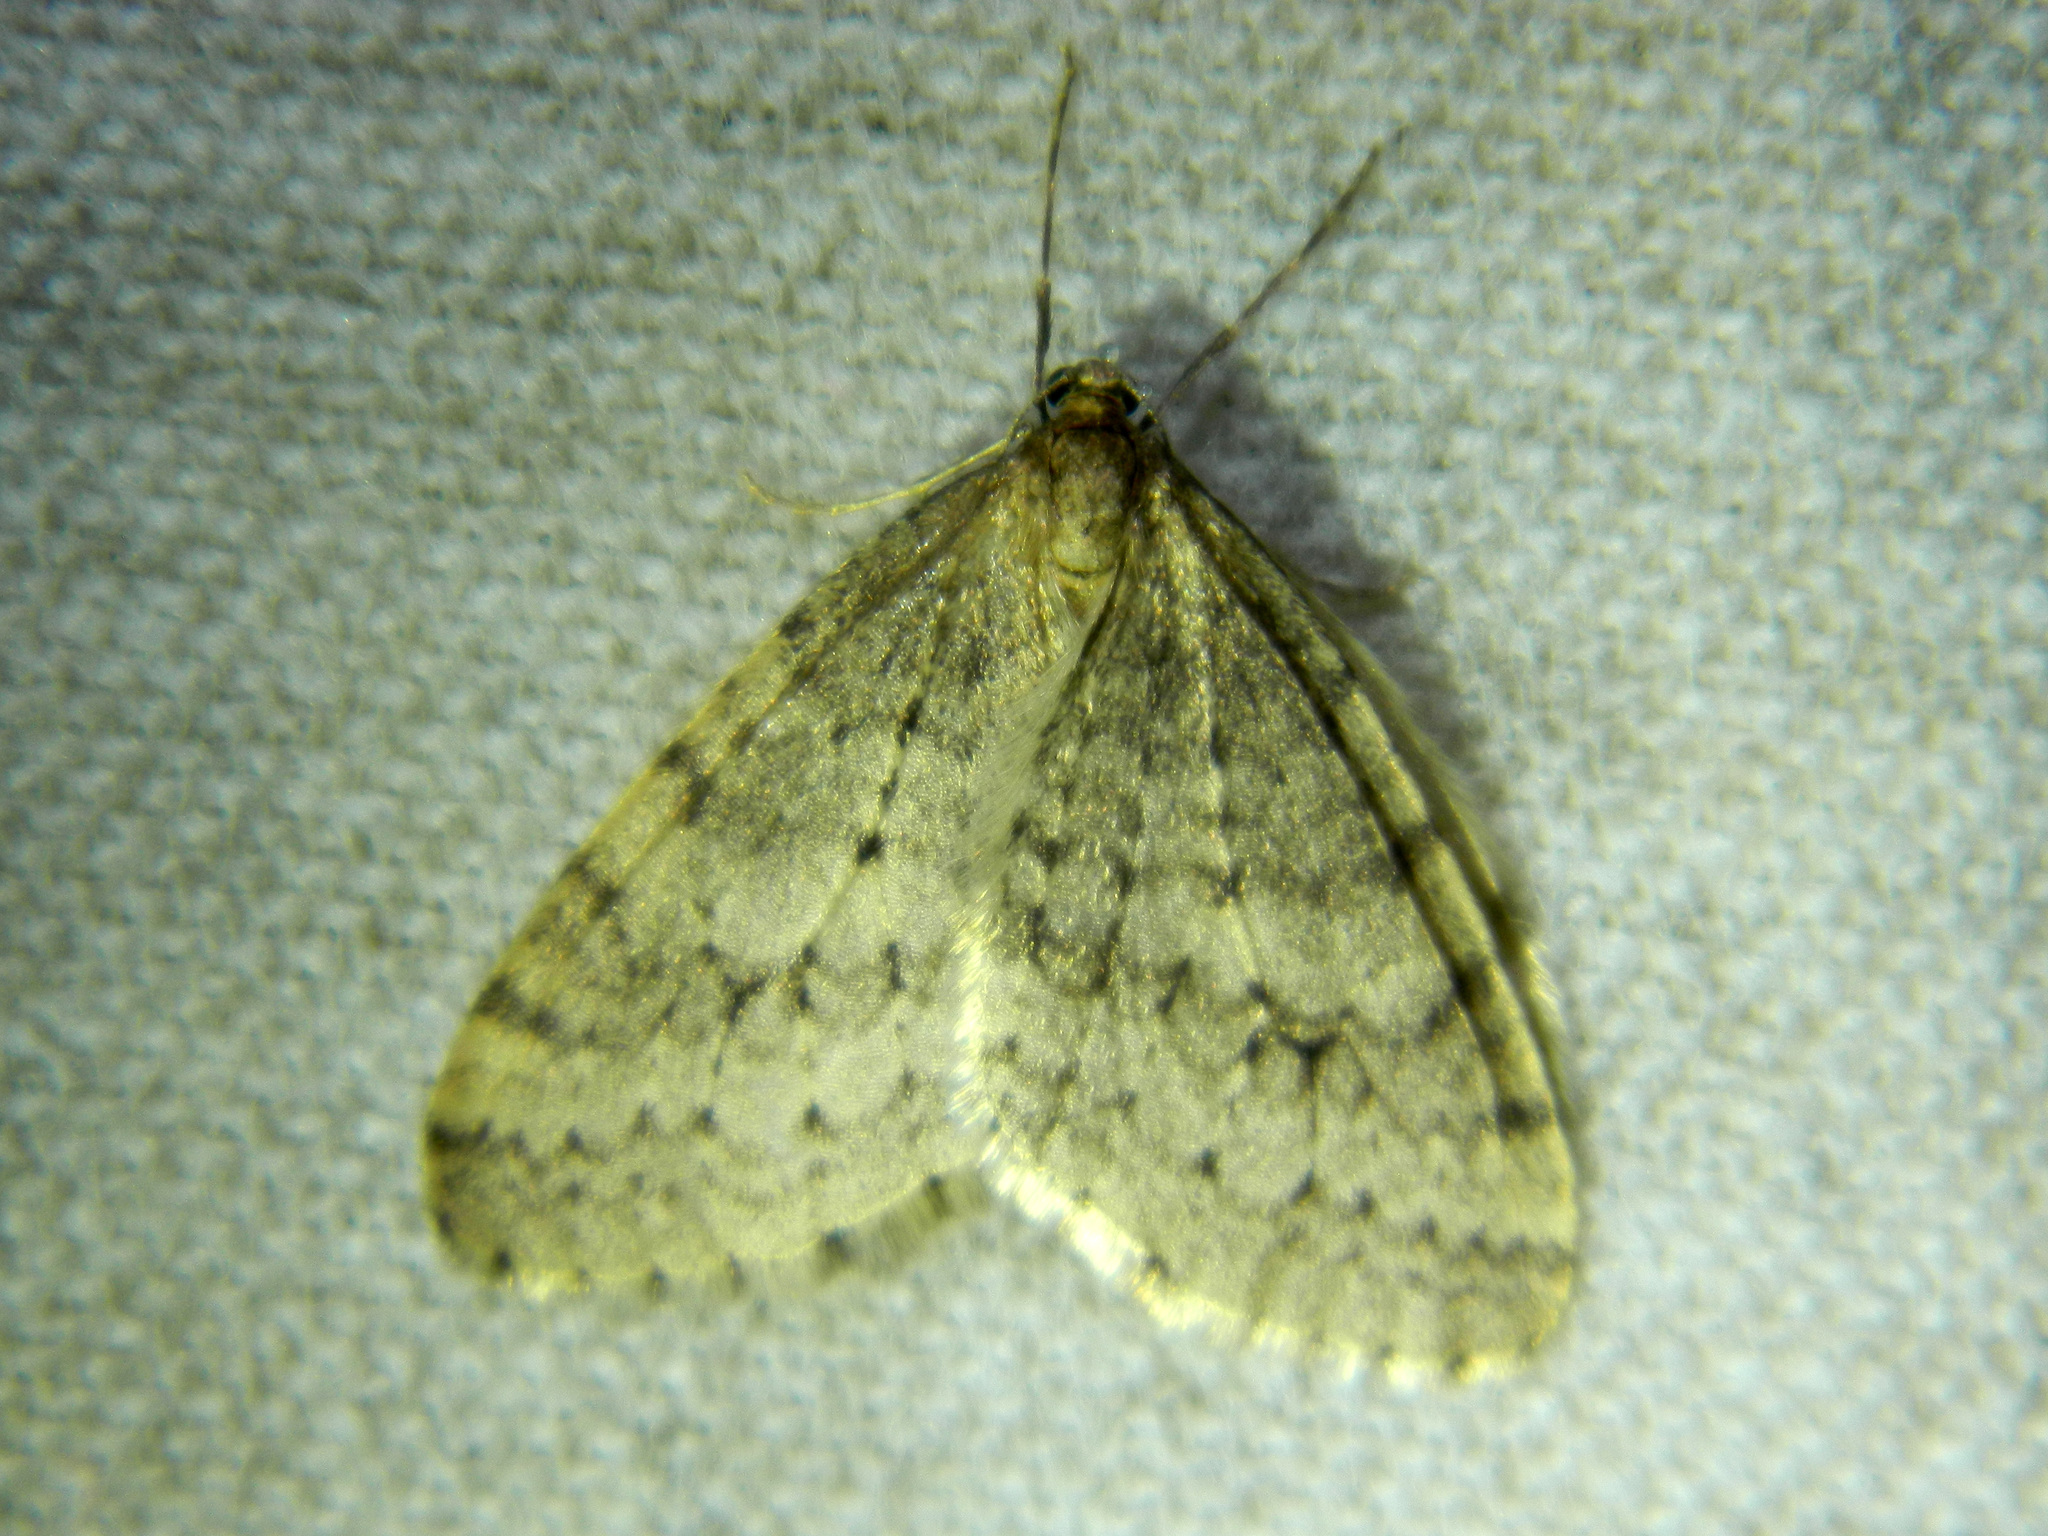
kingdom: Animalia
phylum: Arthropoda
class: Insecta
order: Lepidoptera
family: Geometridae
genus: Operophtera
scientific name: Operophtera bruceata
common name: Bruce spanworm
